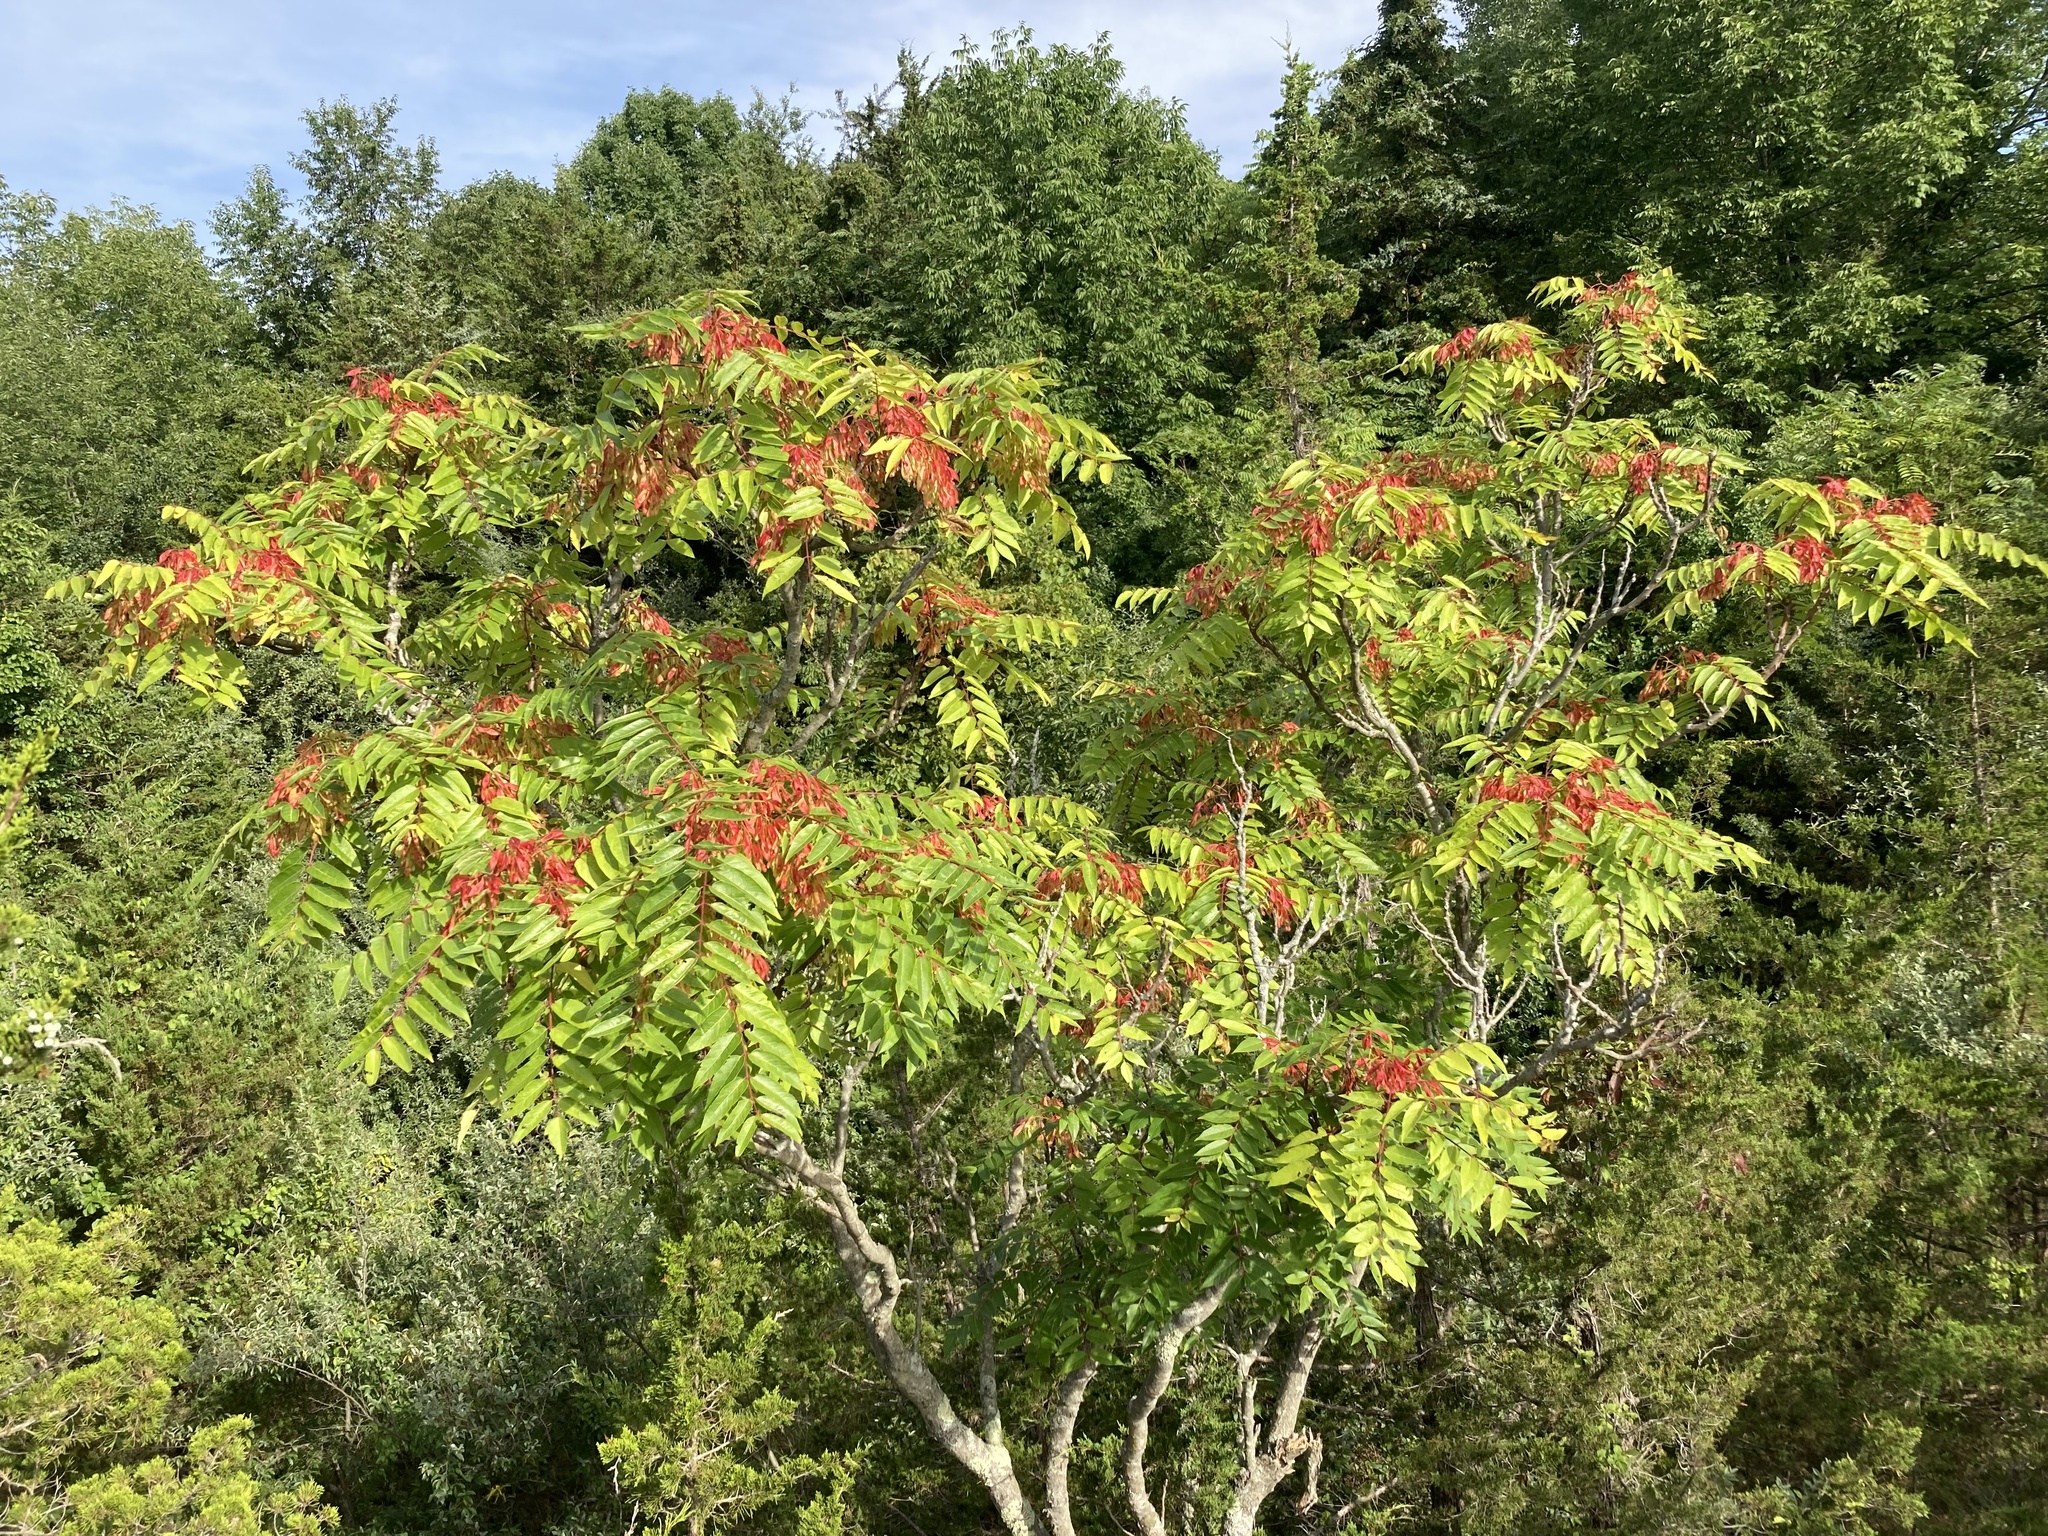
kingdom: Plantae
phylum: Tracheophyta
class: Magnoliopsida
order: Sapindales
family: Simaroubaceae
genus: Ailanthus
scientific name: Ailanthus altissima
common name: Tree-of-heaven
